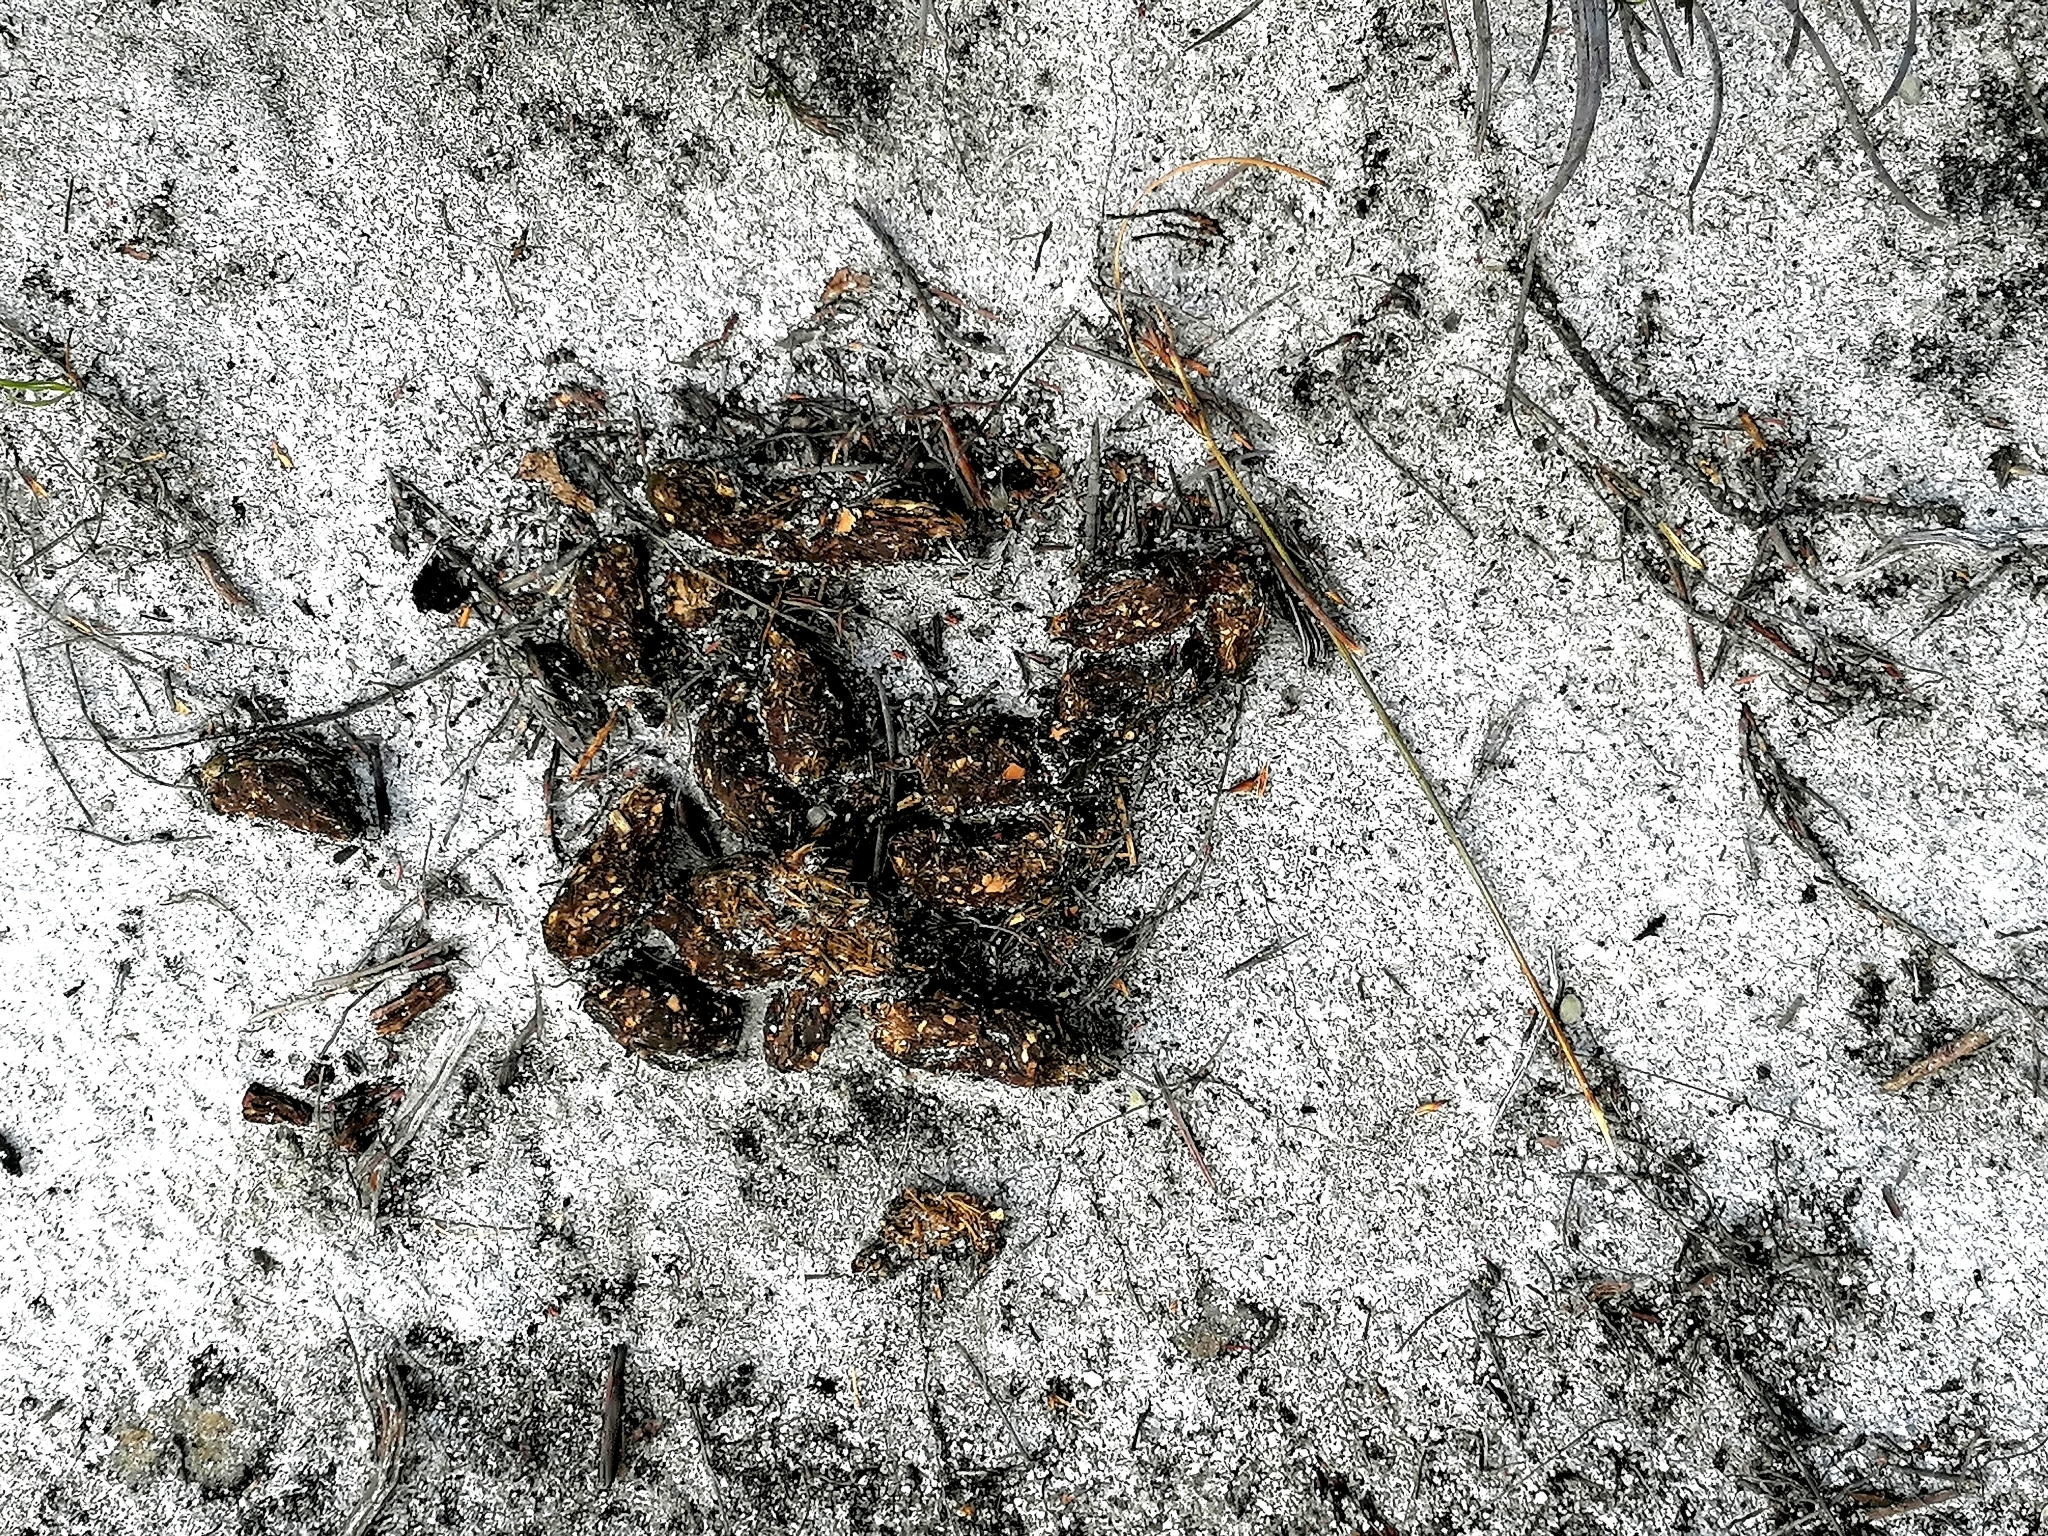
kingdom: Animalia
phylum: Chordata
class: Mammalia
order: Rodentia
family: Hystricidae
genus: Hystrix
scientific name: Hystrix africaeaustralis
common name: Cape porcupine
